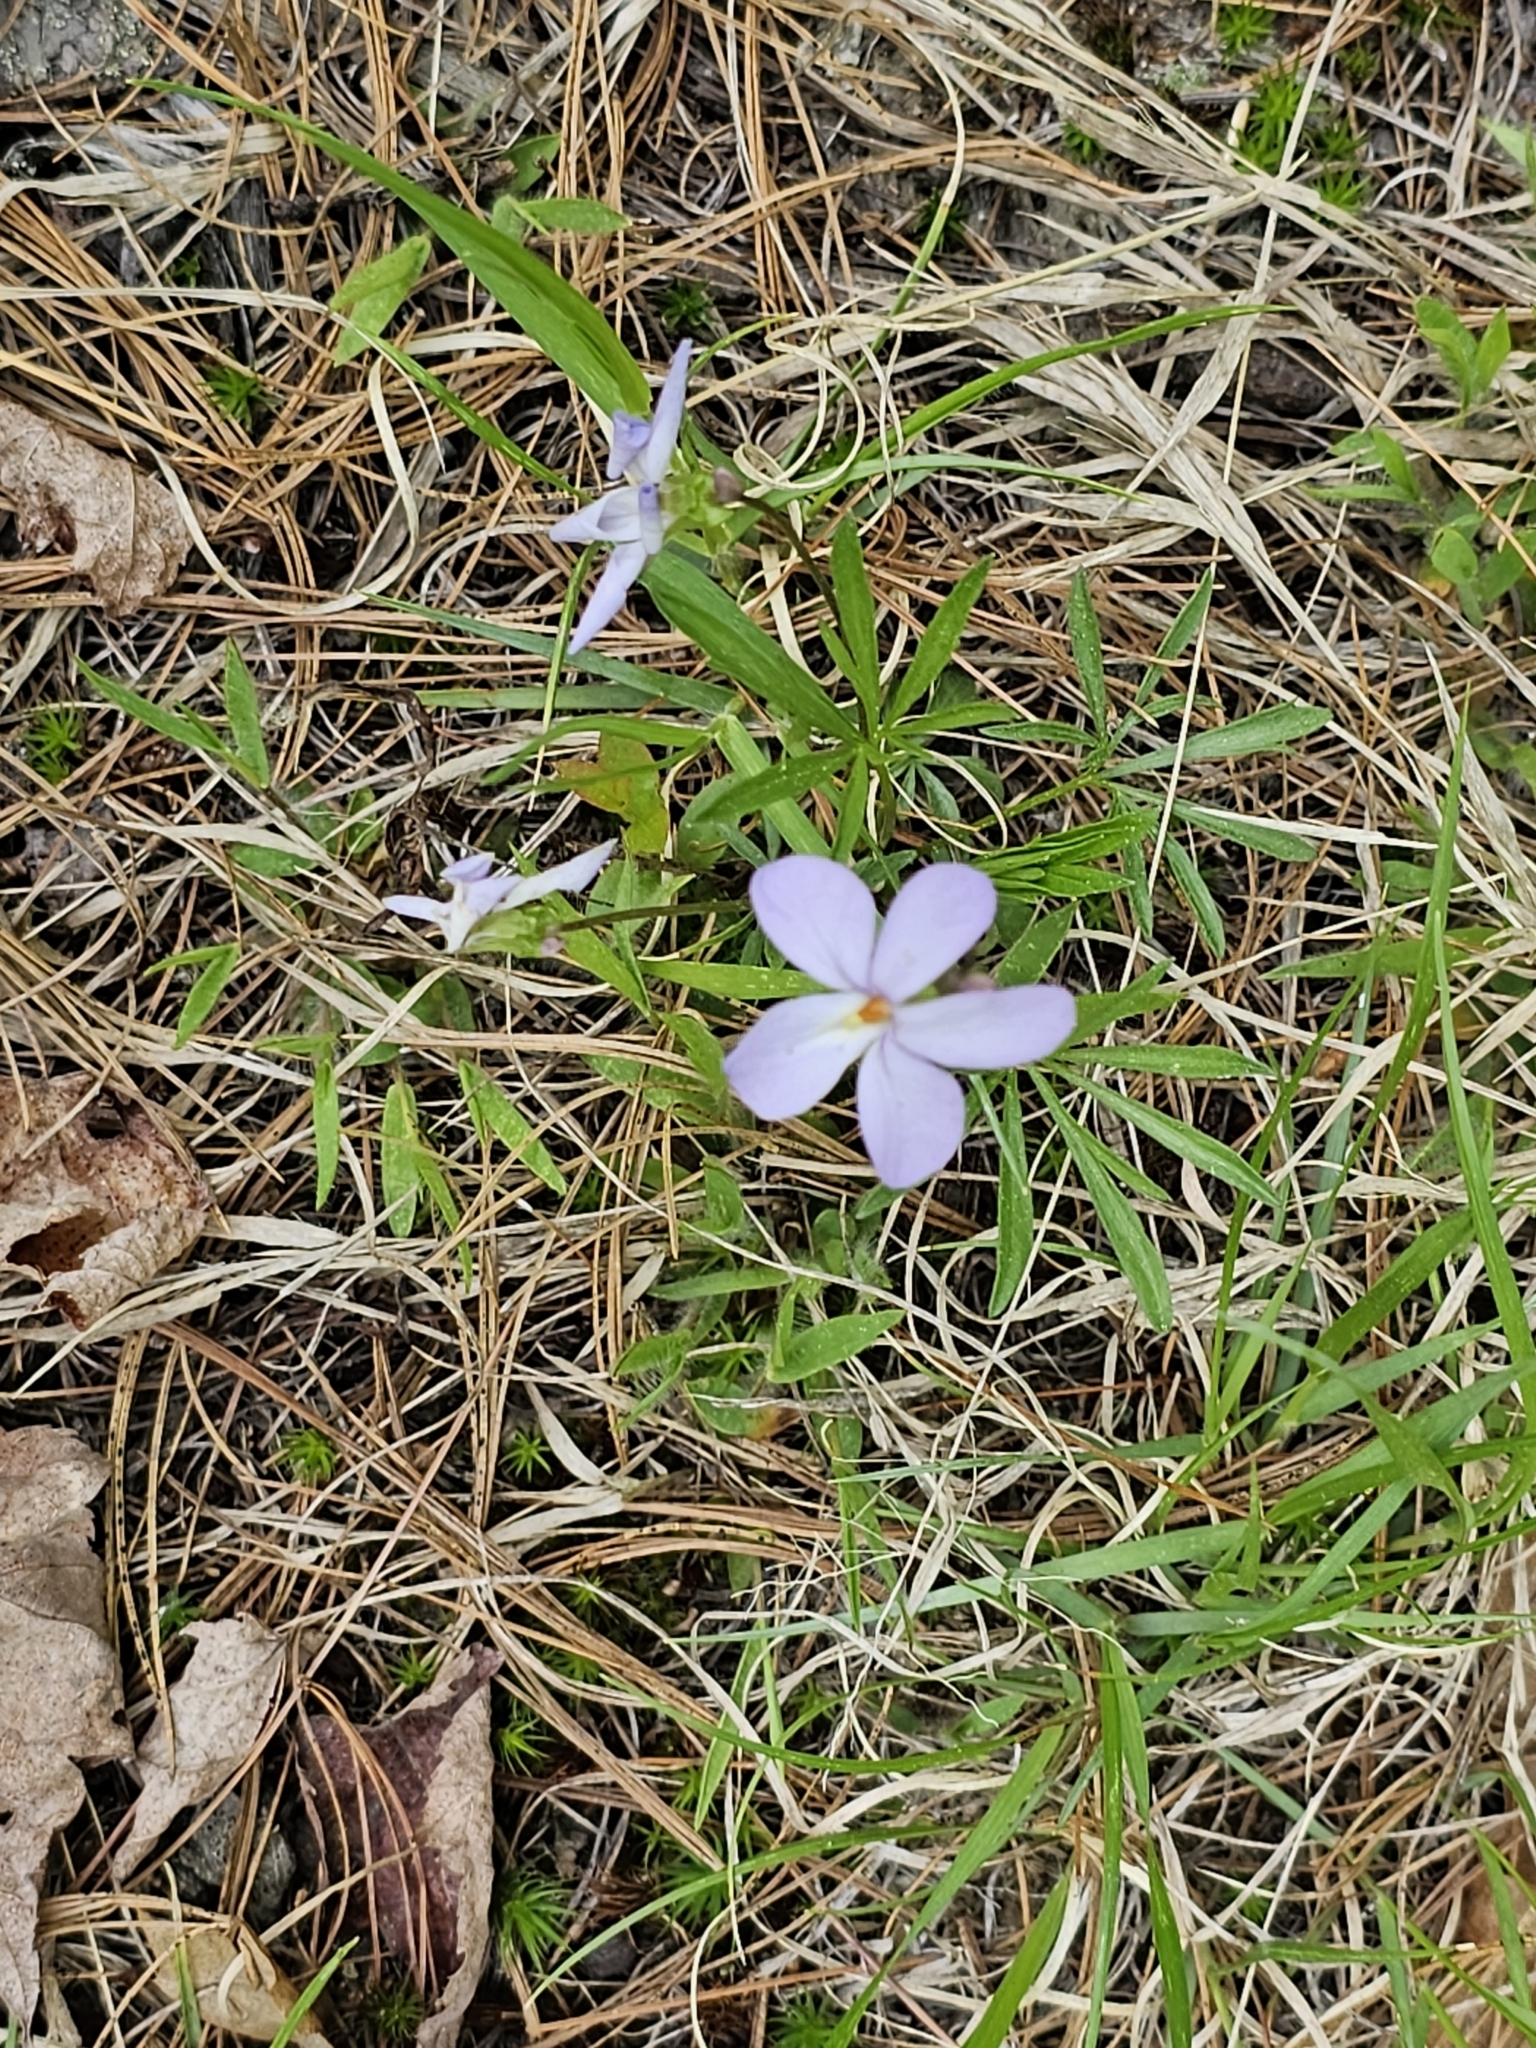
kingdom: Plantae
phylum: Tracheophyta
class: Magnoliopsida
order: Malpighiales
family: Violaceae
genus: Viola
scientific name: Viola pedata
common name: Pansy violet
